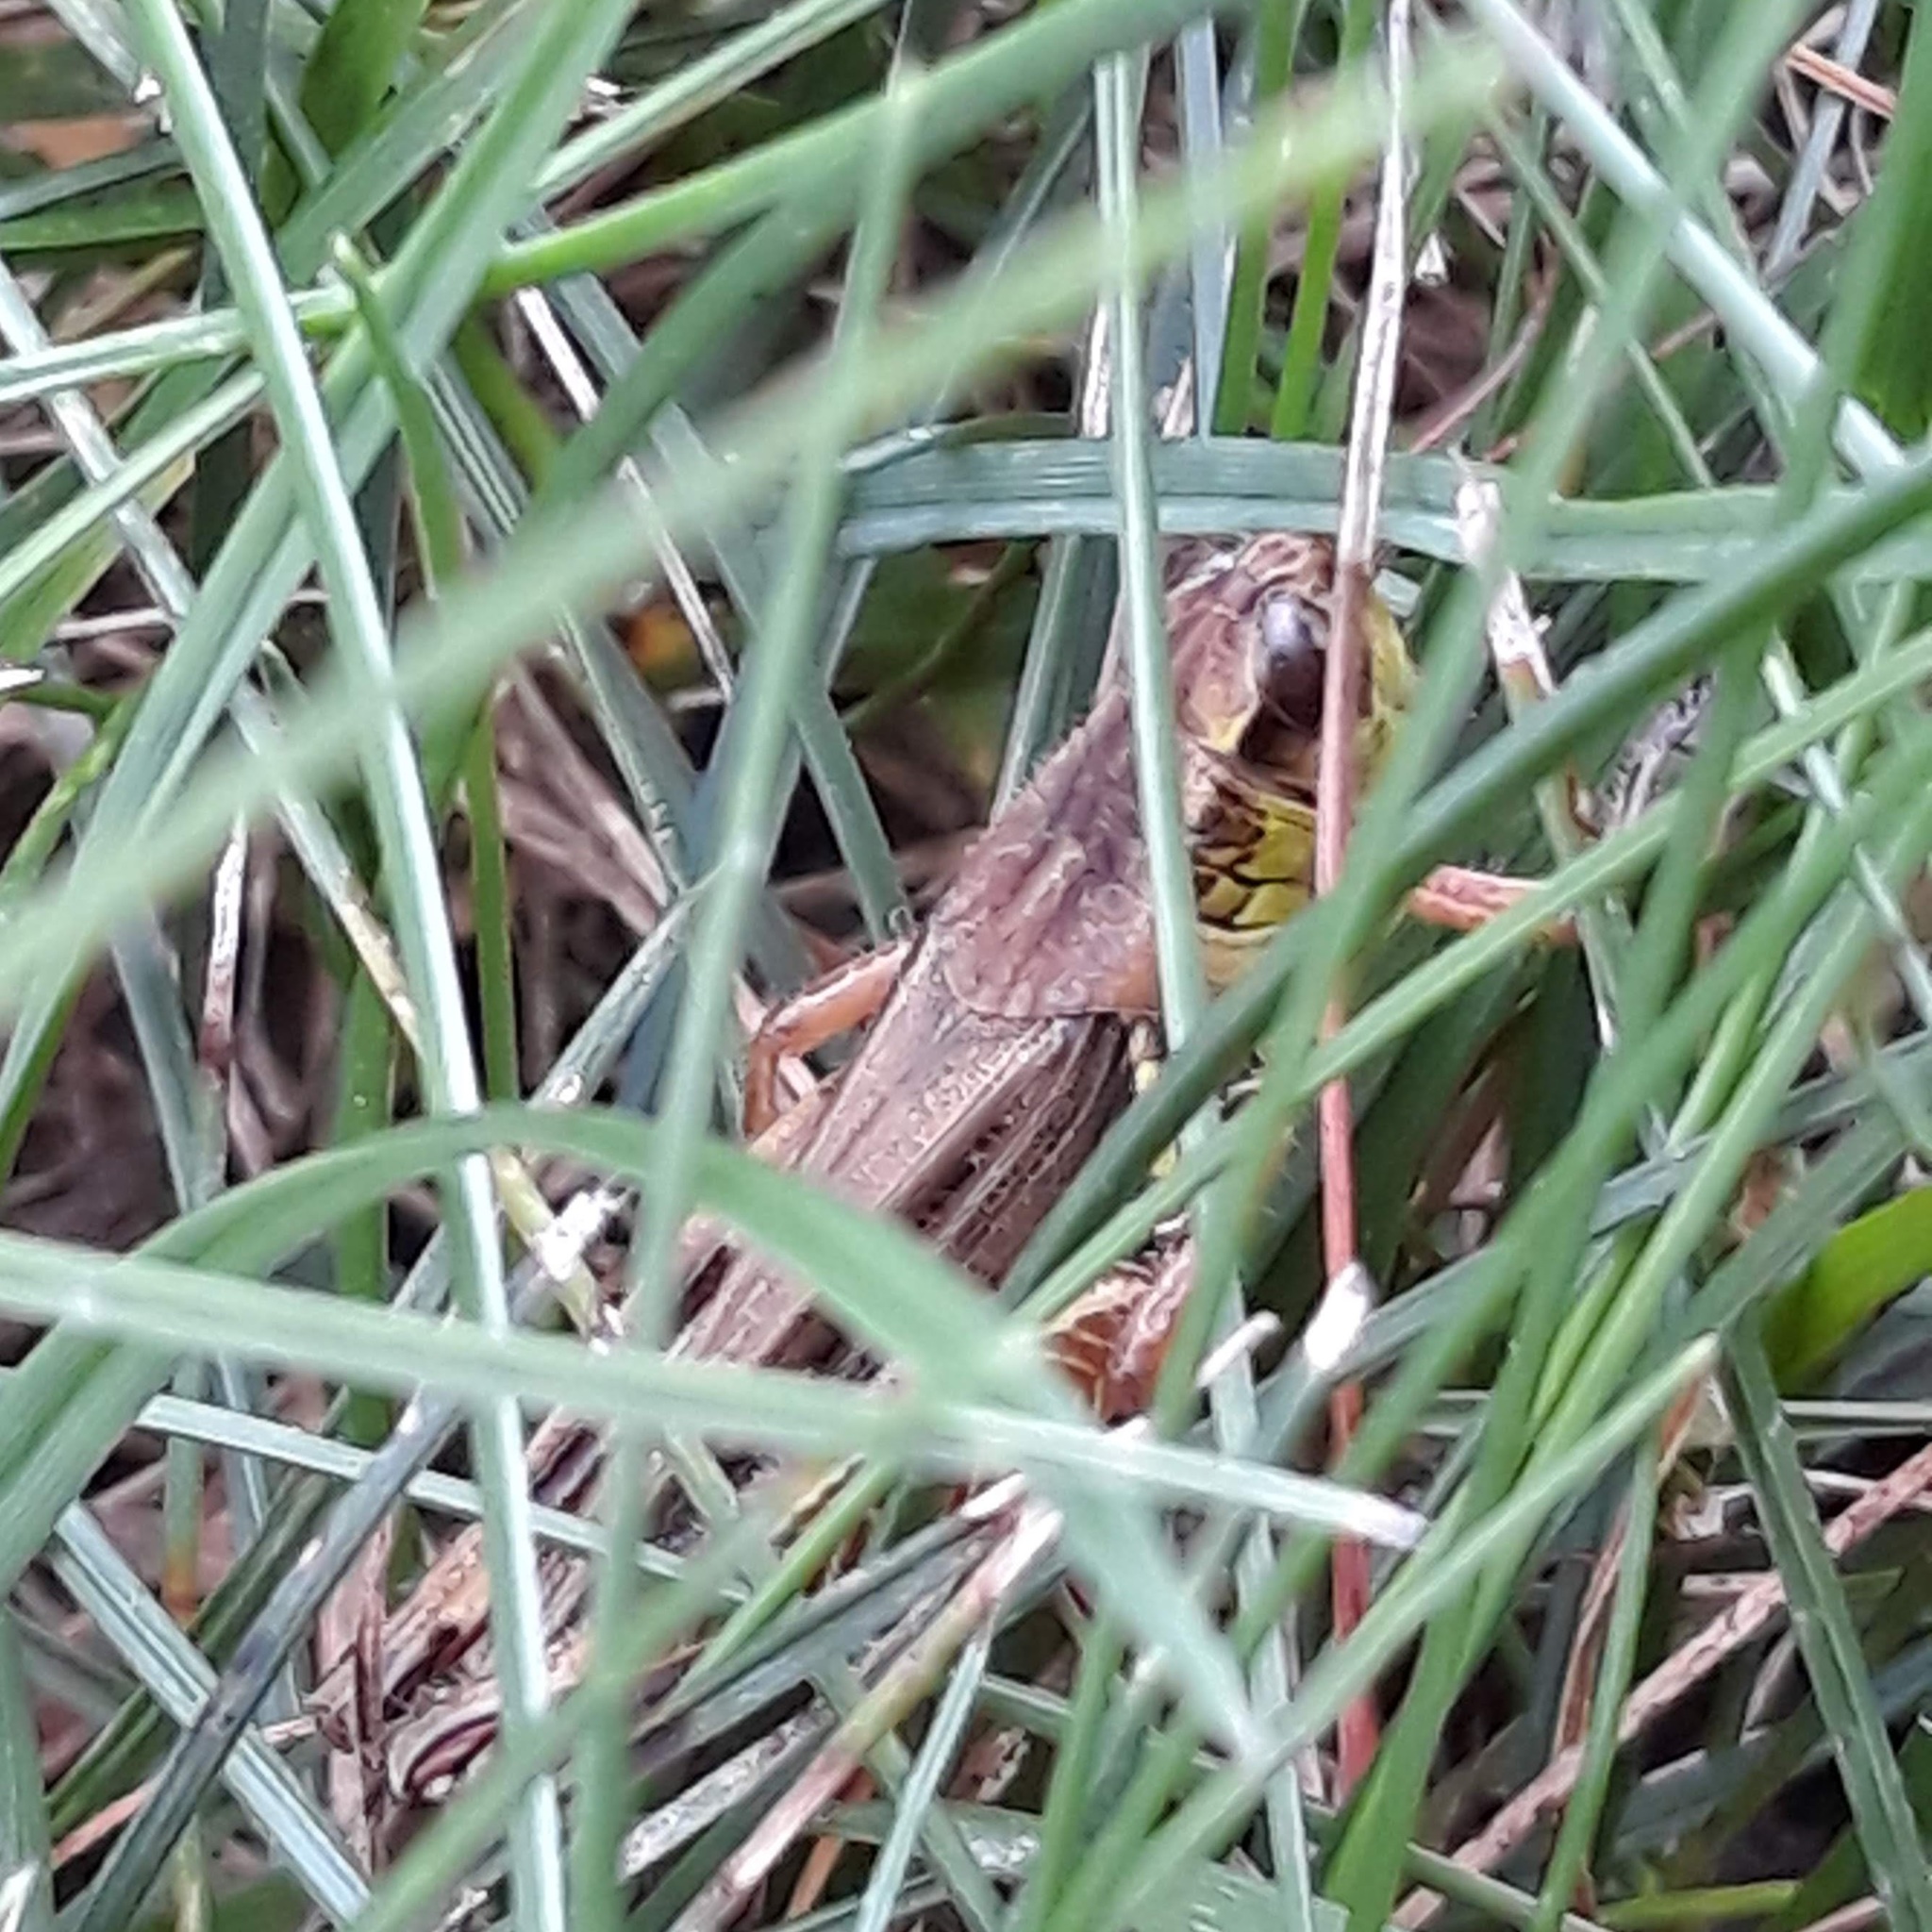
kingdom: Animalia
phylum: Arthropoda
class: Insecta
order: Orthoptera
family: Acrididae
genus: Melanoplus
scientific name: Melanoplus femurrubrum
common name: Red-legged grasshopper
